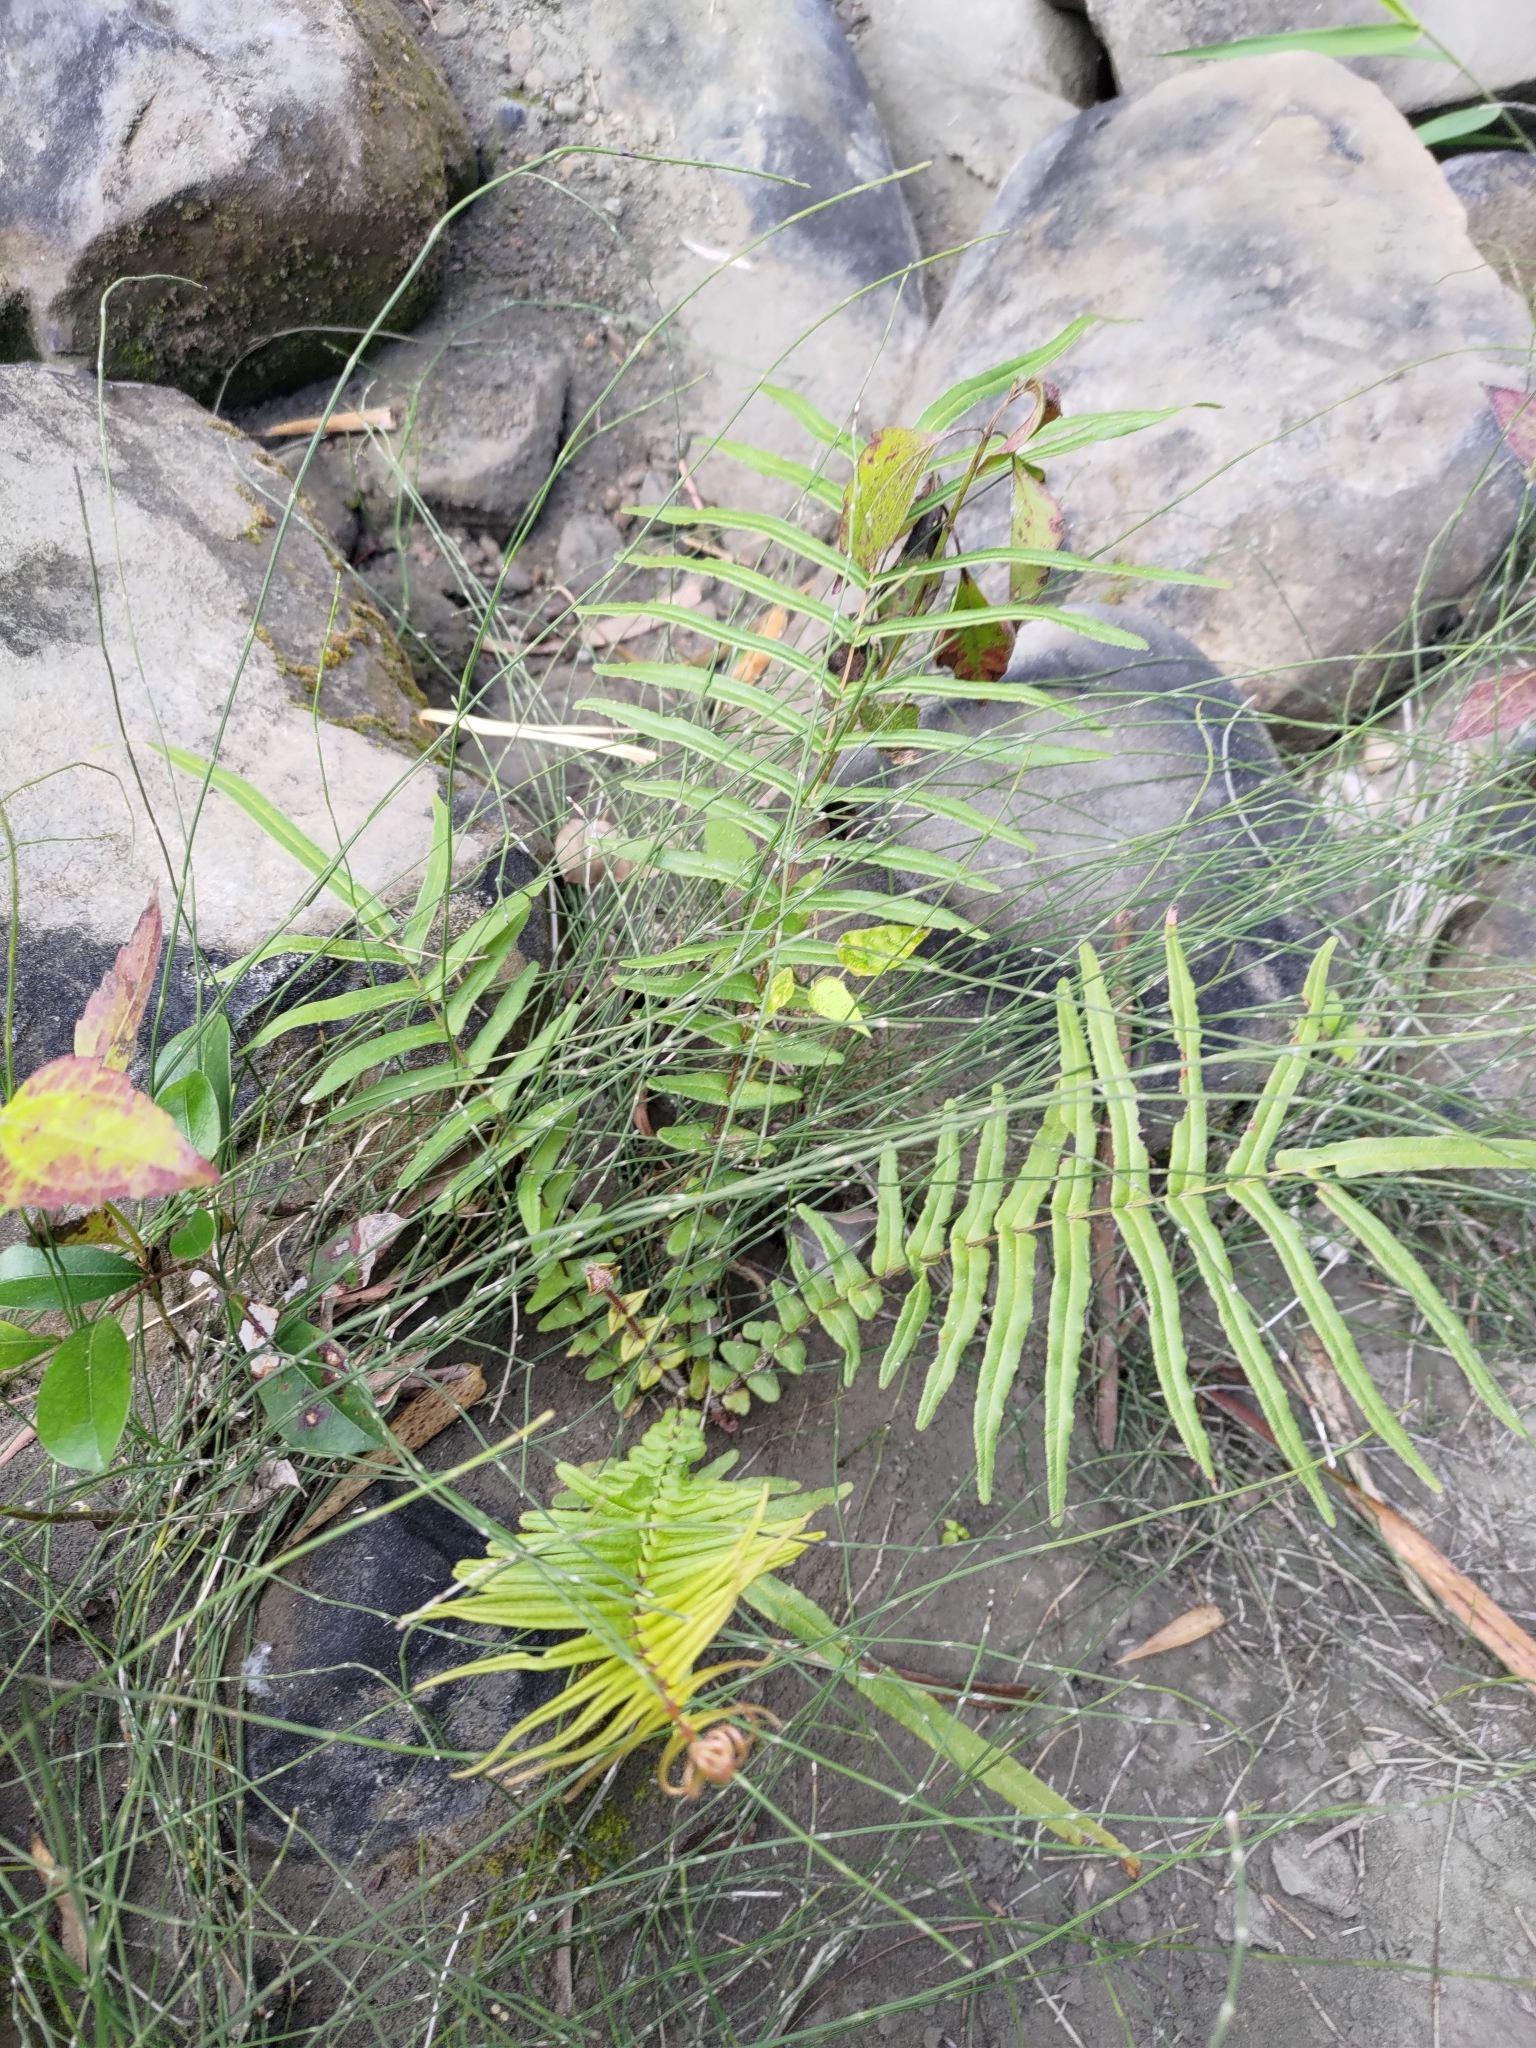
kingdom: Plantae
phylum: Tracheophyta
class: Polypodiopsida
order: Polypodiales
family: Pteridaceae
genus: Pteris
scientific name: Pteris vittata
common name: Ladder brake
